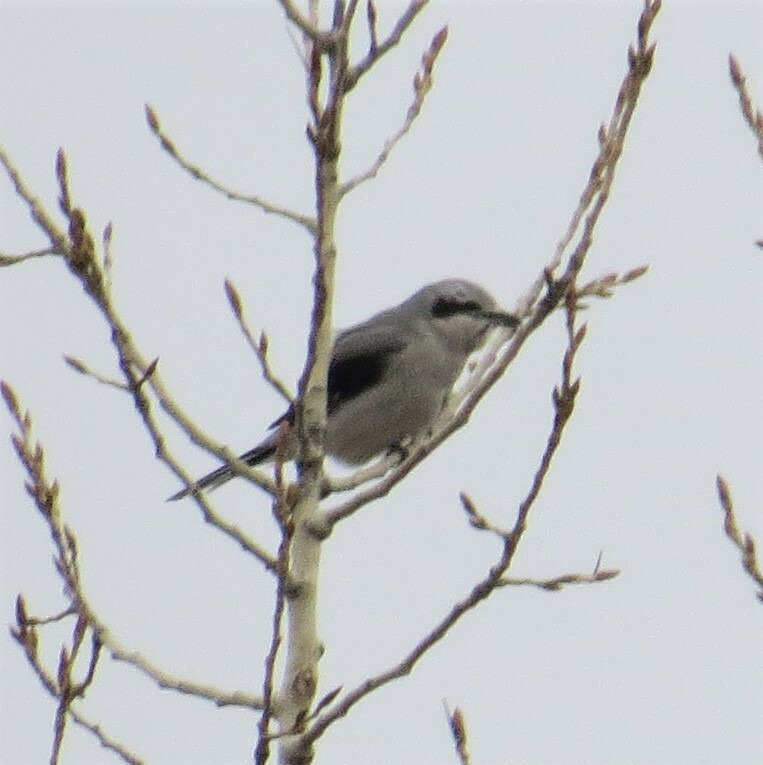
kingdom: Animalia
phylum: Chordata
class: Aves
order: Passeriformes
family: Laniidae
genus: Lanius
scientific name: Lanius borealis
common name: Northern shrike
